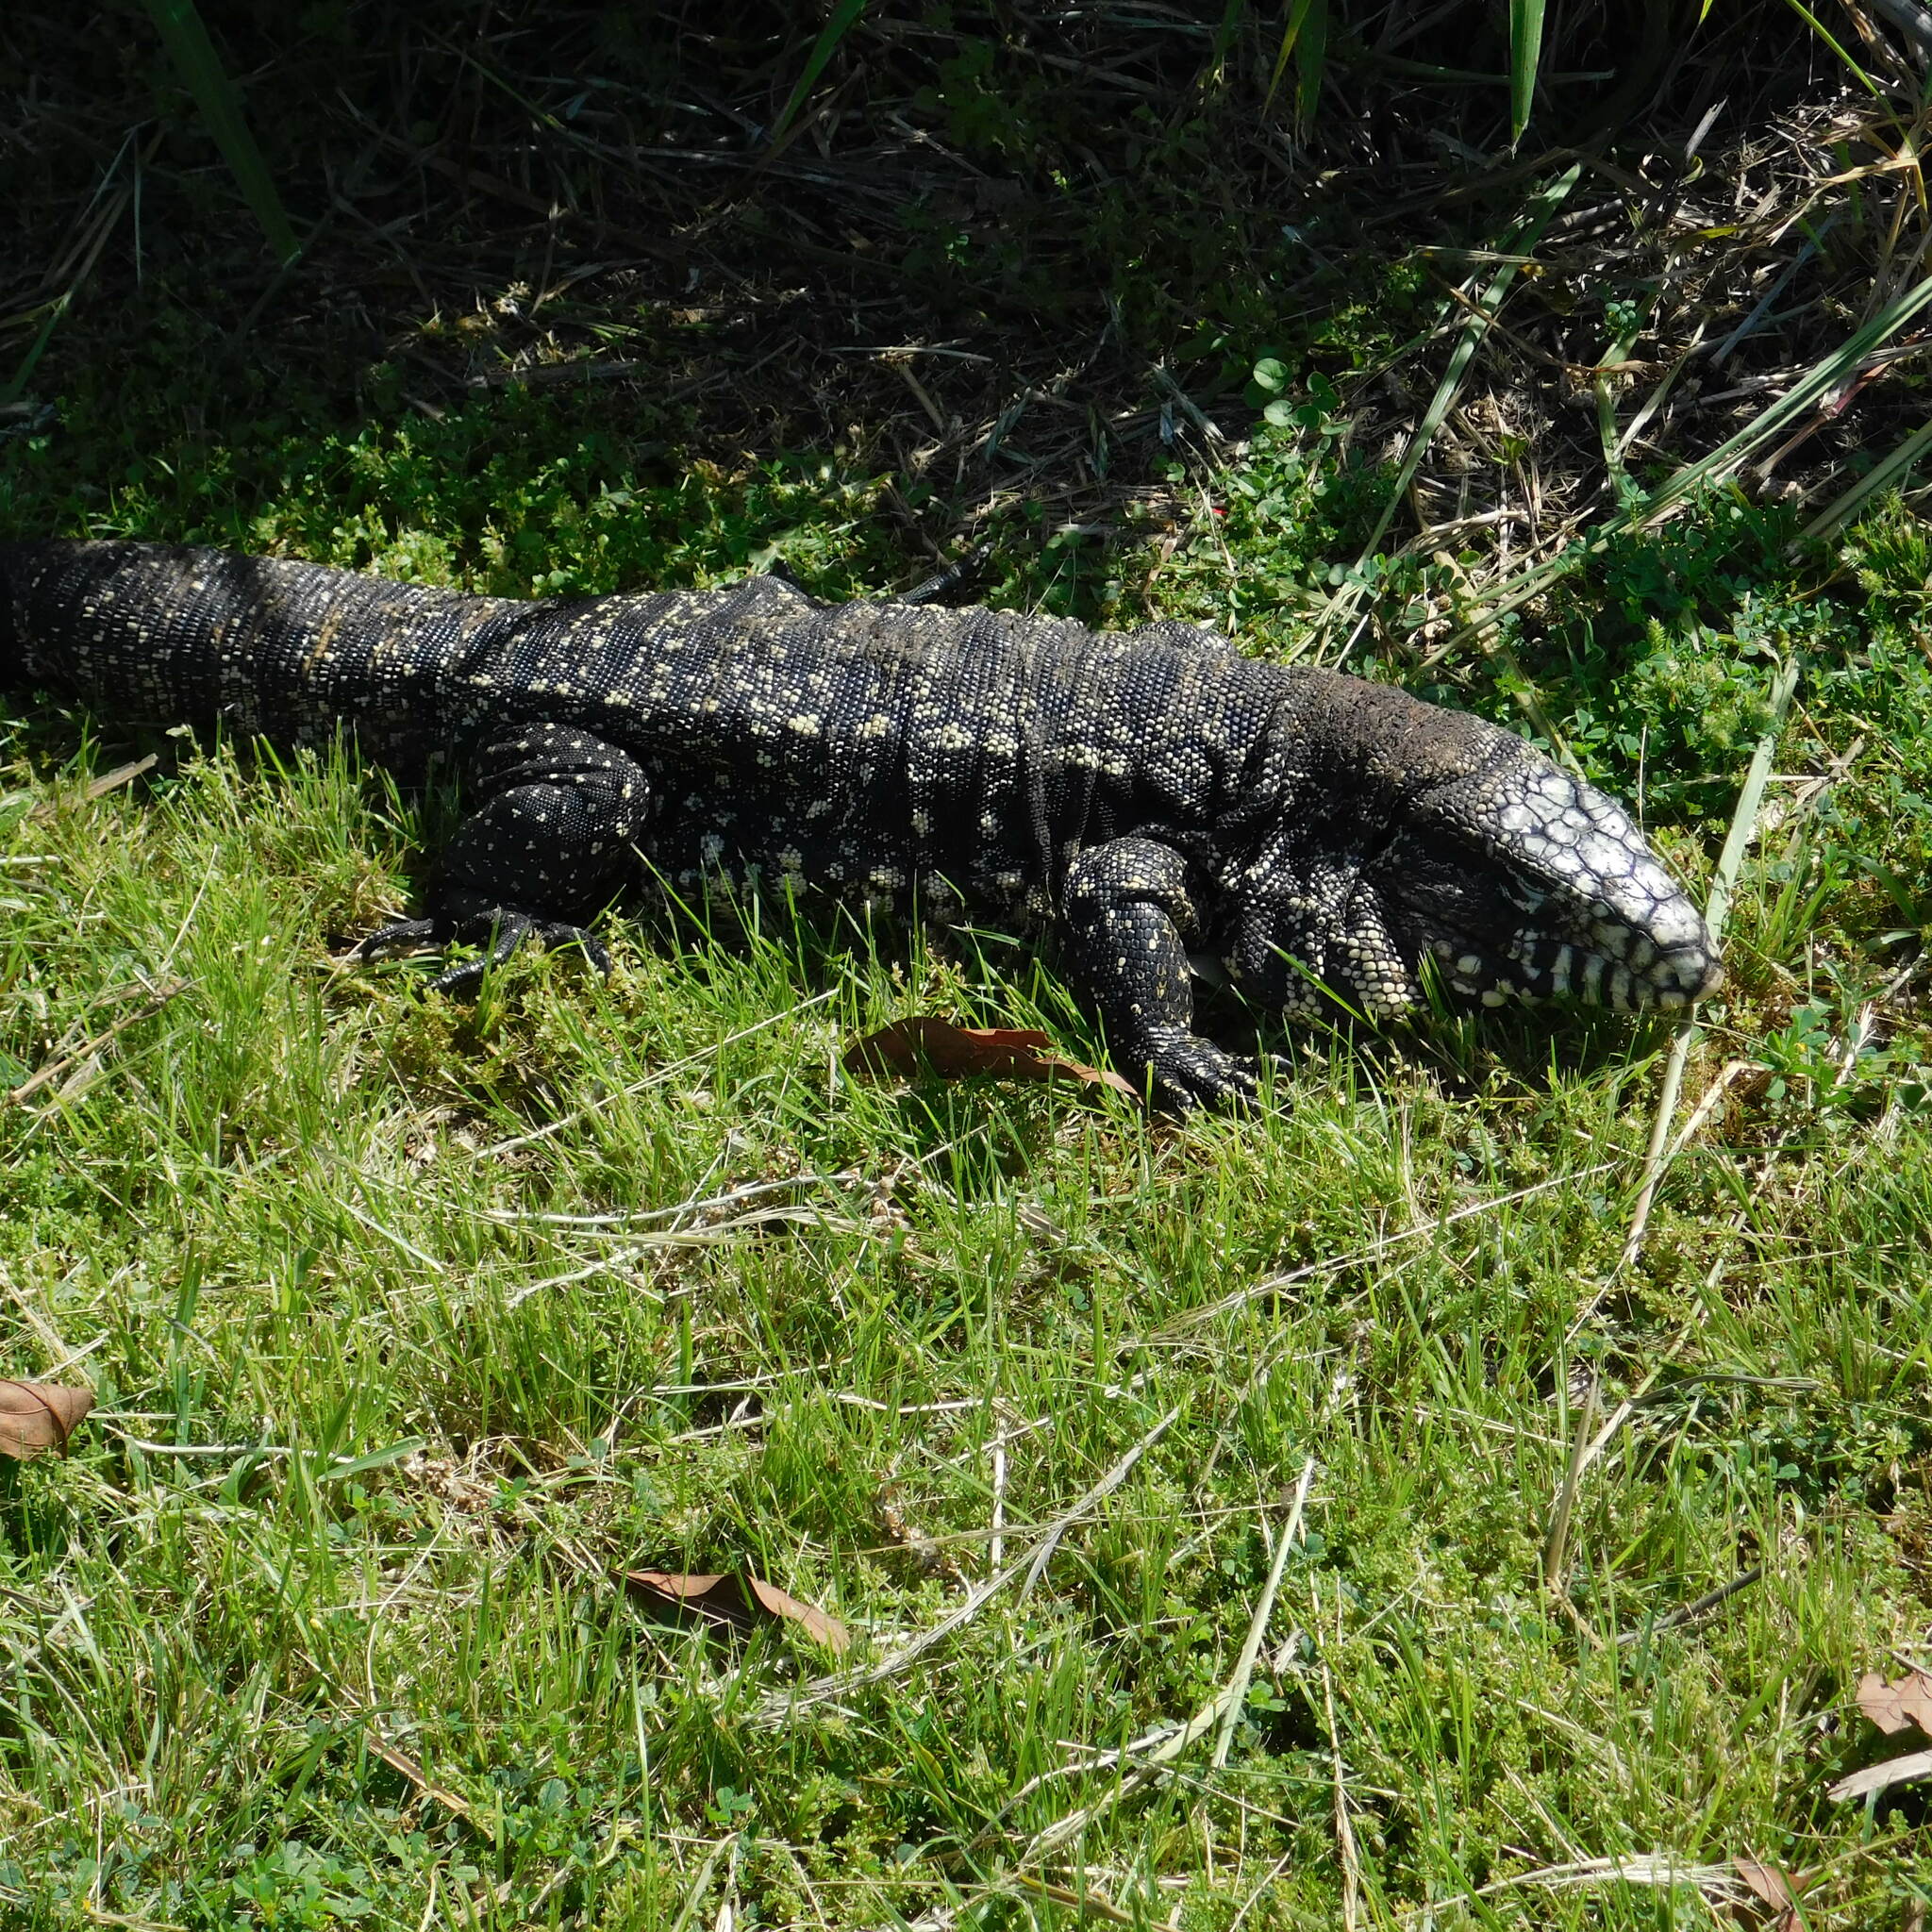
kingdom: Animalia
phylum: Chordata
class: Squamata
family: Teiidae
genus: Salvator
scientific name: Salvator merianae
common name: Argentine black and white tegu
